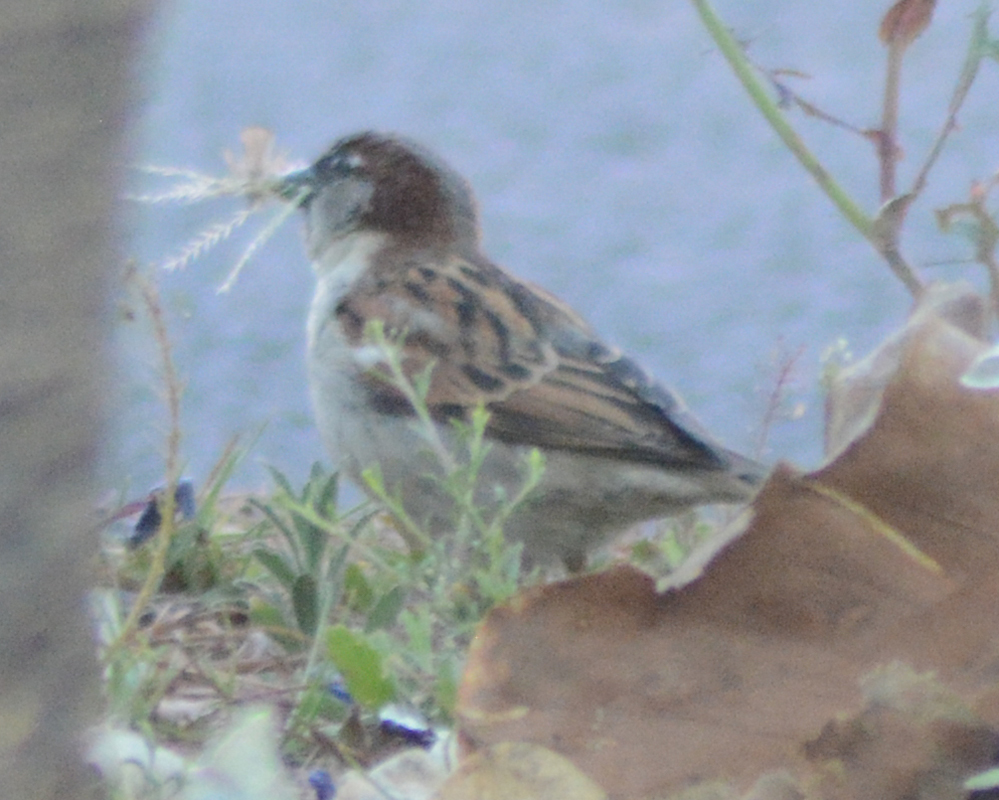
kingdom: Animalia
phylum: Chordata
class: Aves
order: Passeriformes
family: Passeridae
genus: Passer
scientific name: Passer domesticus
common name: House sparrow
